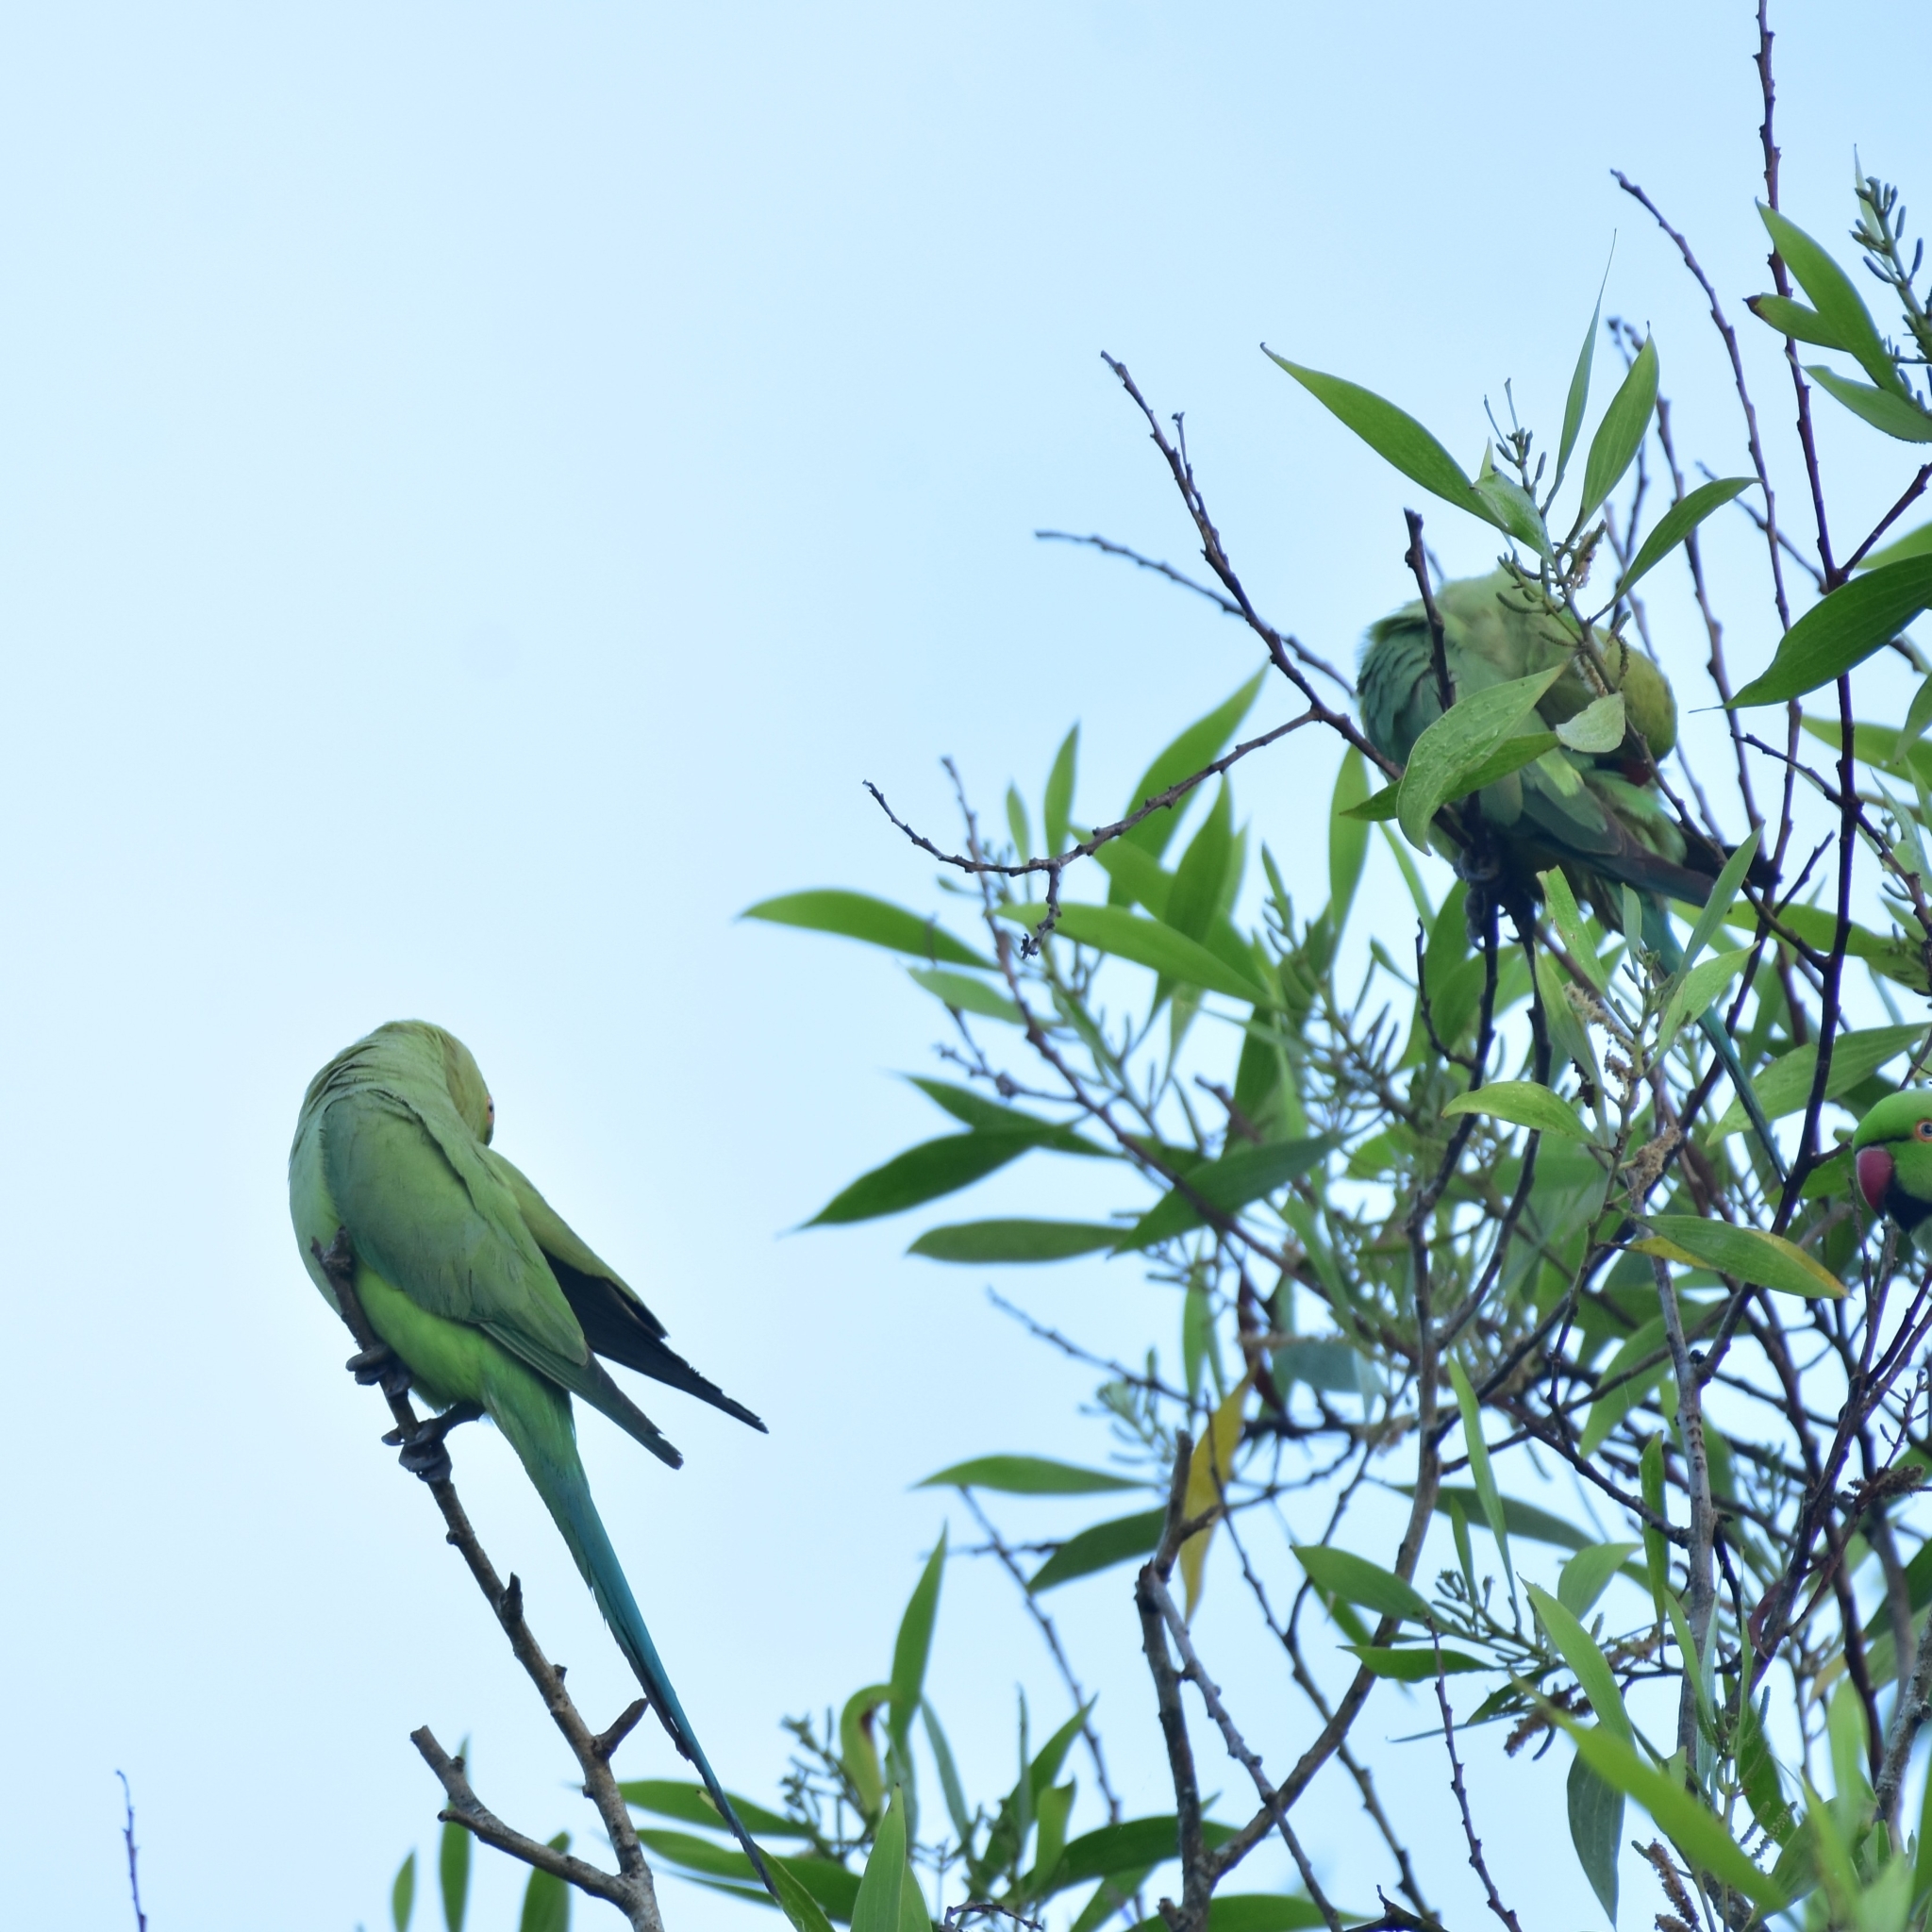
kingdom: Animalia
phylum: Chordata
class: Aves
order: Psittaciformes
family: Psittacidae
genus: Psittacula
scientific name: Psittacula krameri
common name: Rose-ringed parakeet
